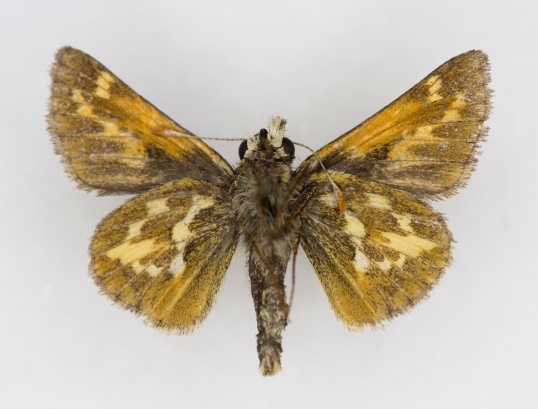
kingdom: Animalia
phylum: Arthropoda
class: Insecta
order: Lepidoptera
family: Hesperiidae
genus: Polites
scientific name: Polites sabuleti
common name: Sandhill skipper
